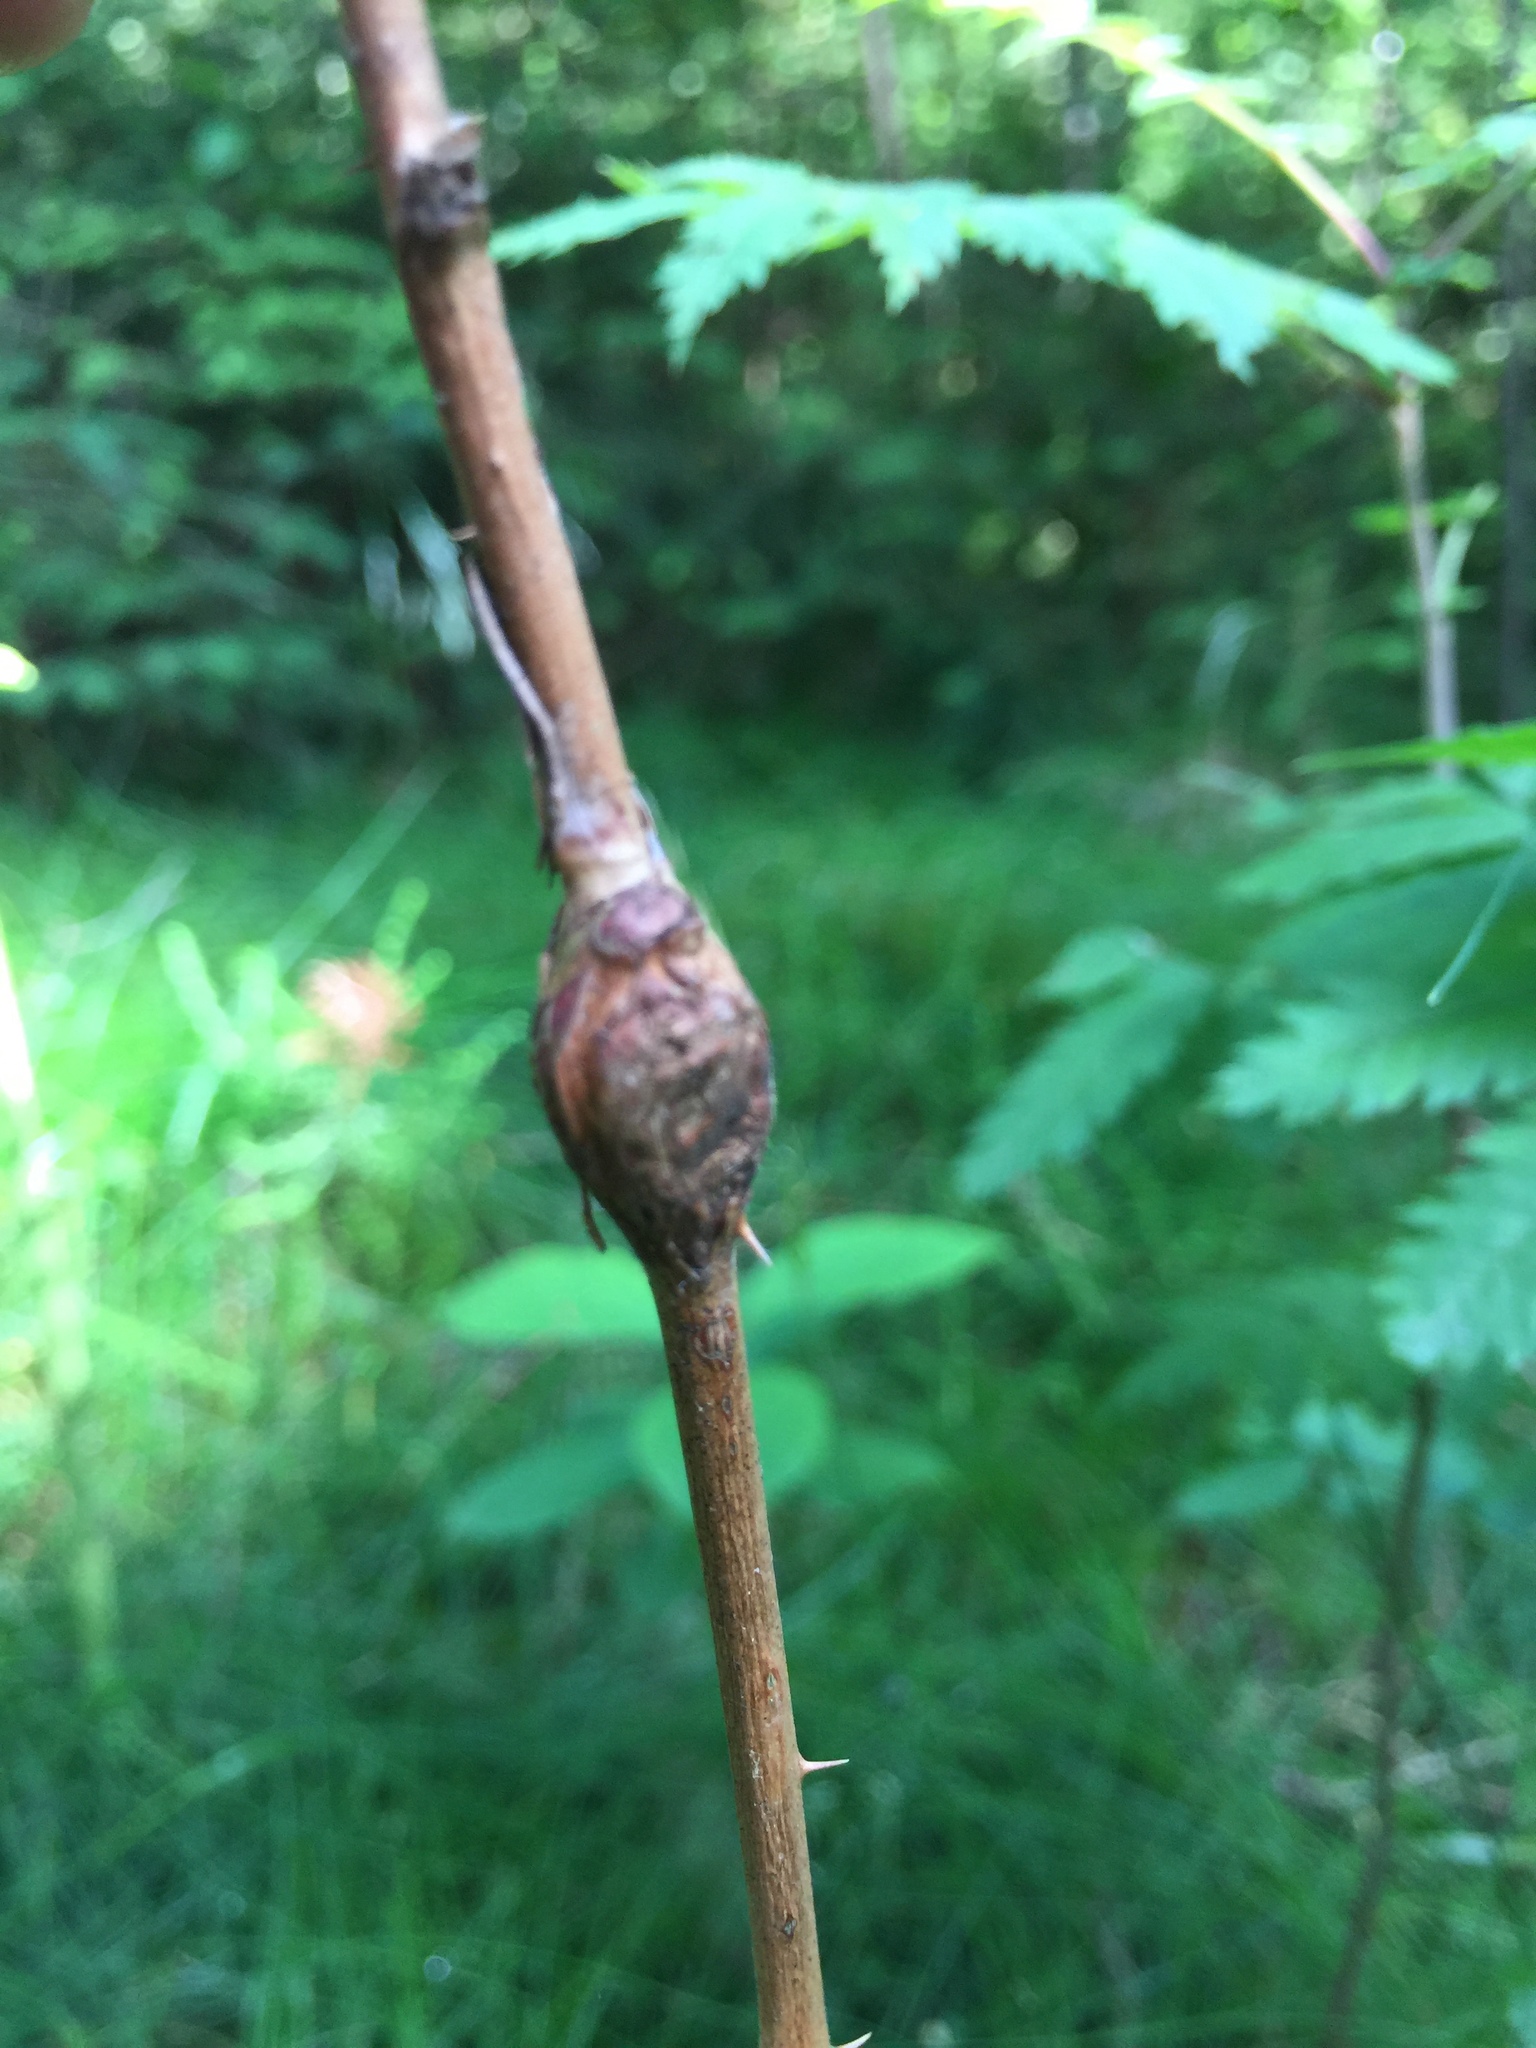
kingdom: Animalia
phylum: Arthropoda
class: Insecta
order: Diptera
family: Cecidomyiidae
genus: Lasioptera
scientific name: Lasioptera rubi
